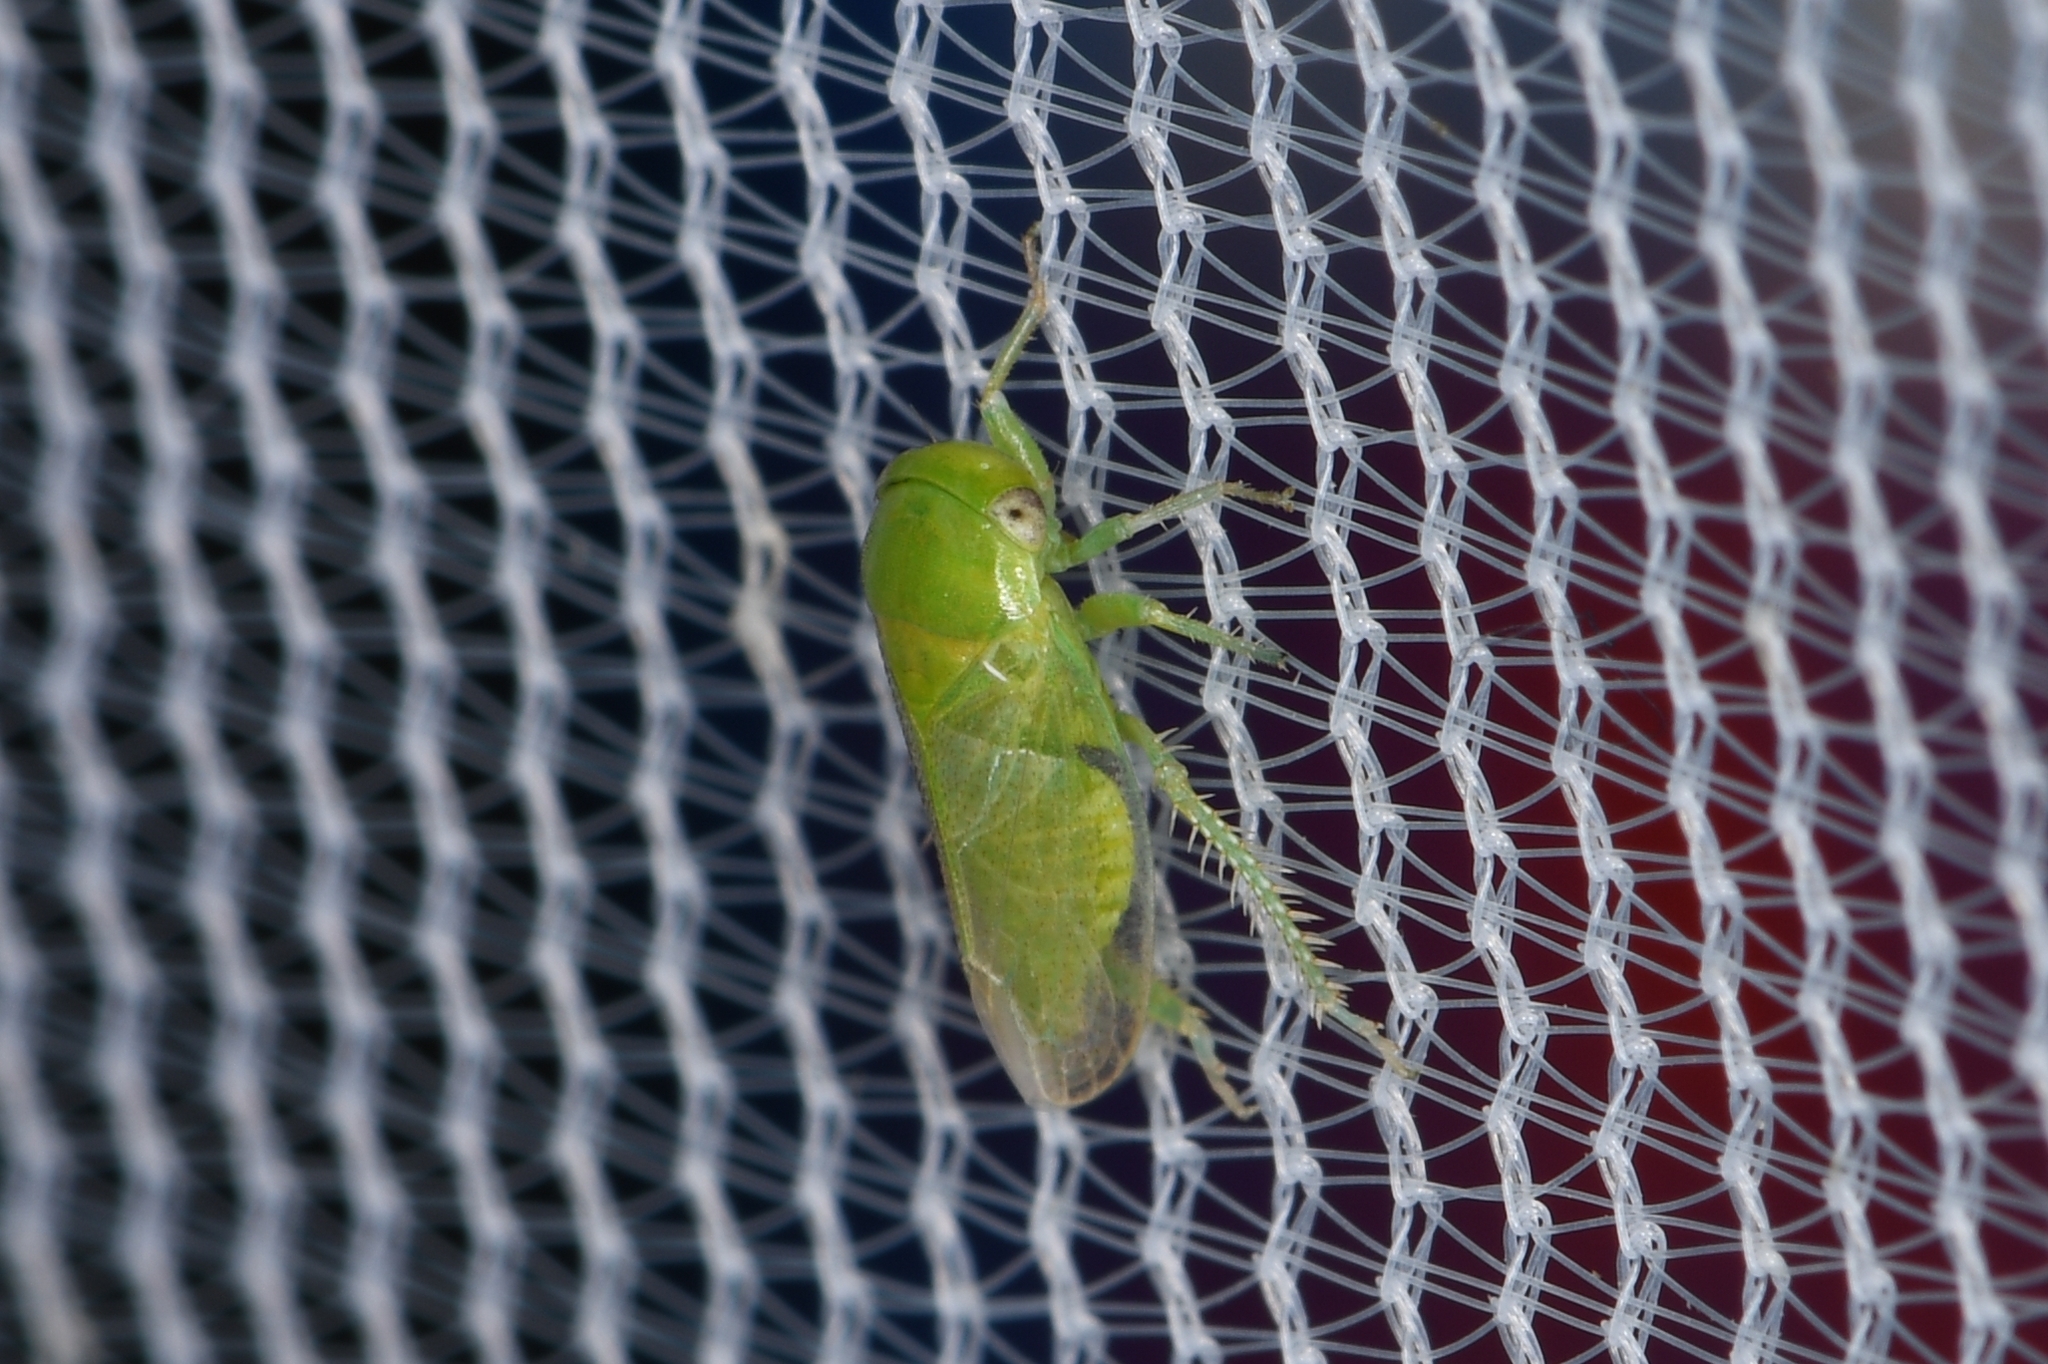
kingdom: Animalia
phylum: Arthropoda
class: Insecta
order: Hemiptera
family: Cicadellidae
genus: Penestragania
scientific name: Penestragania robusta
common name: Robust leafhopper
